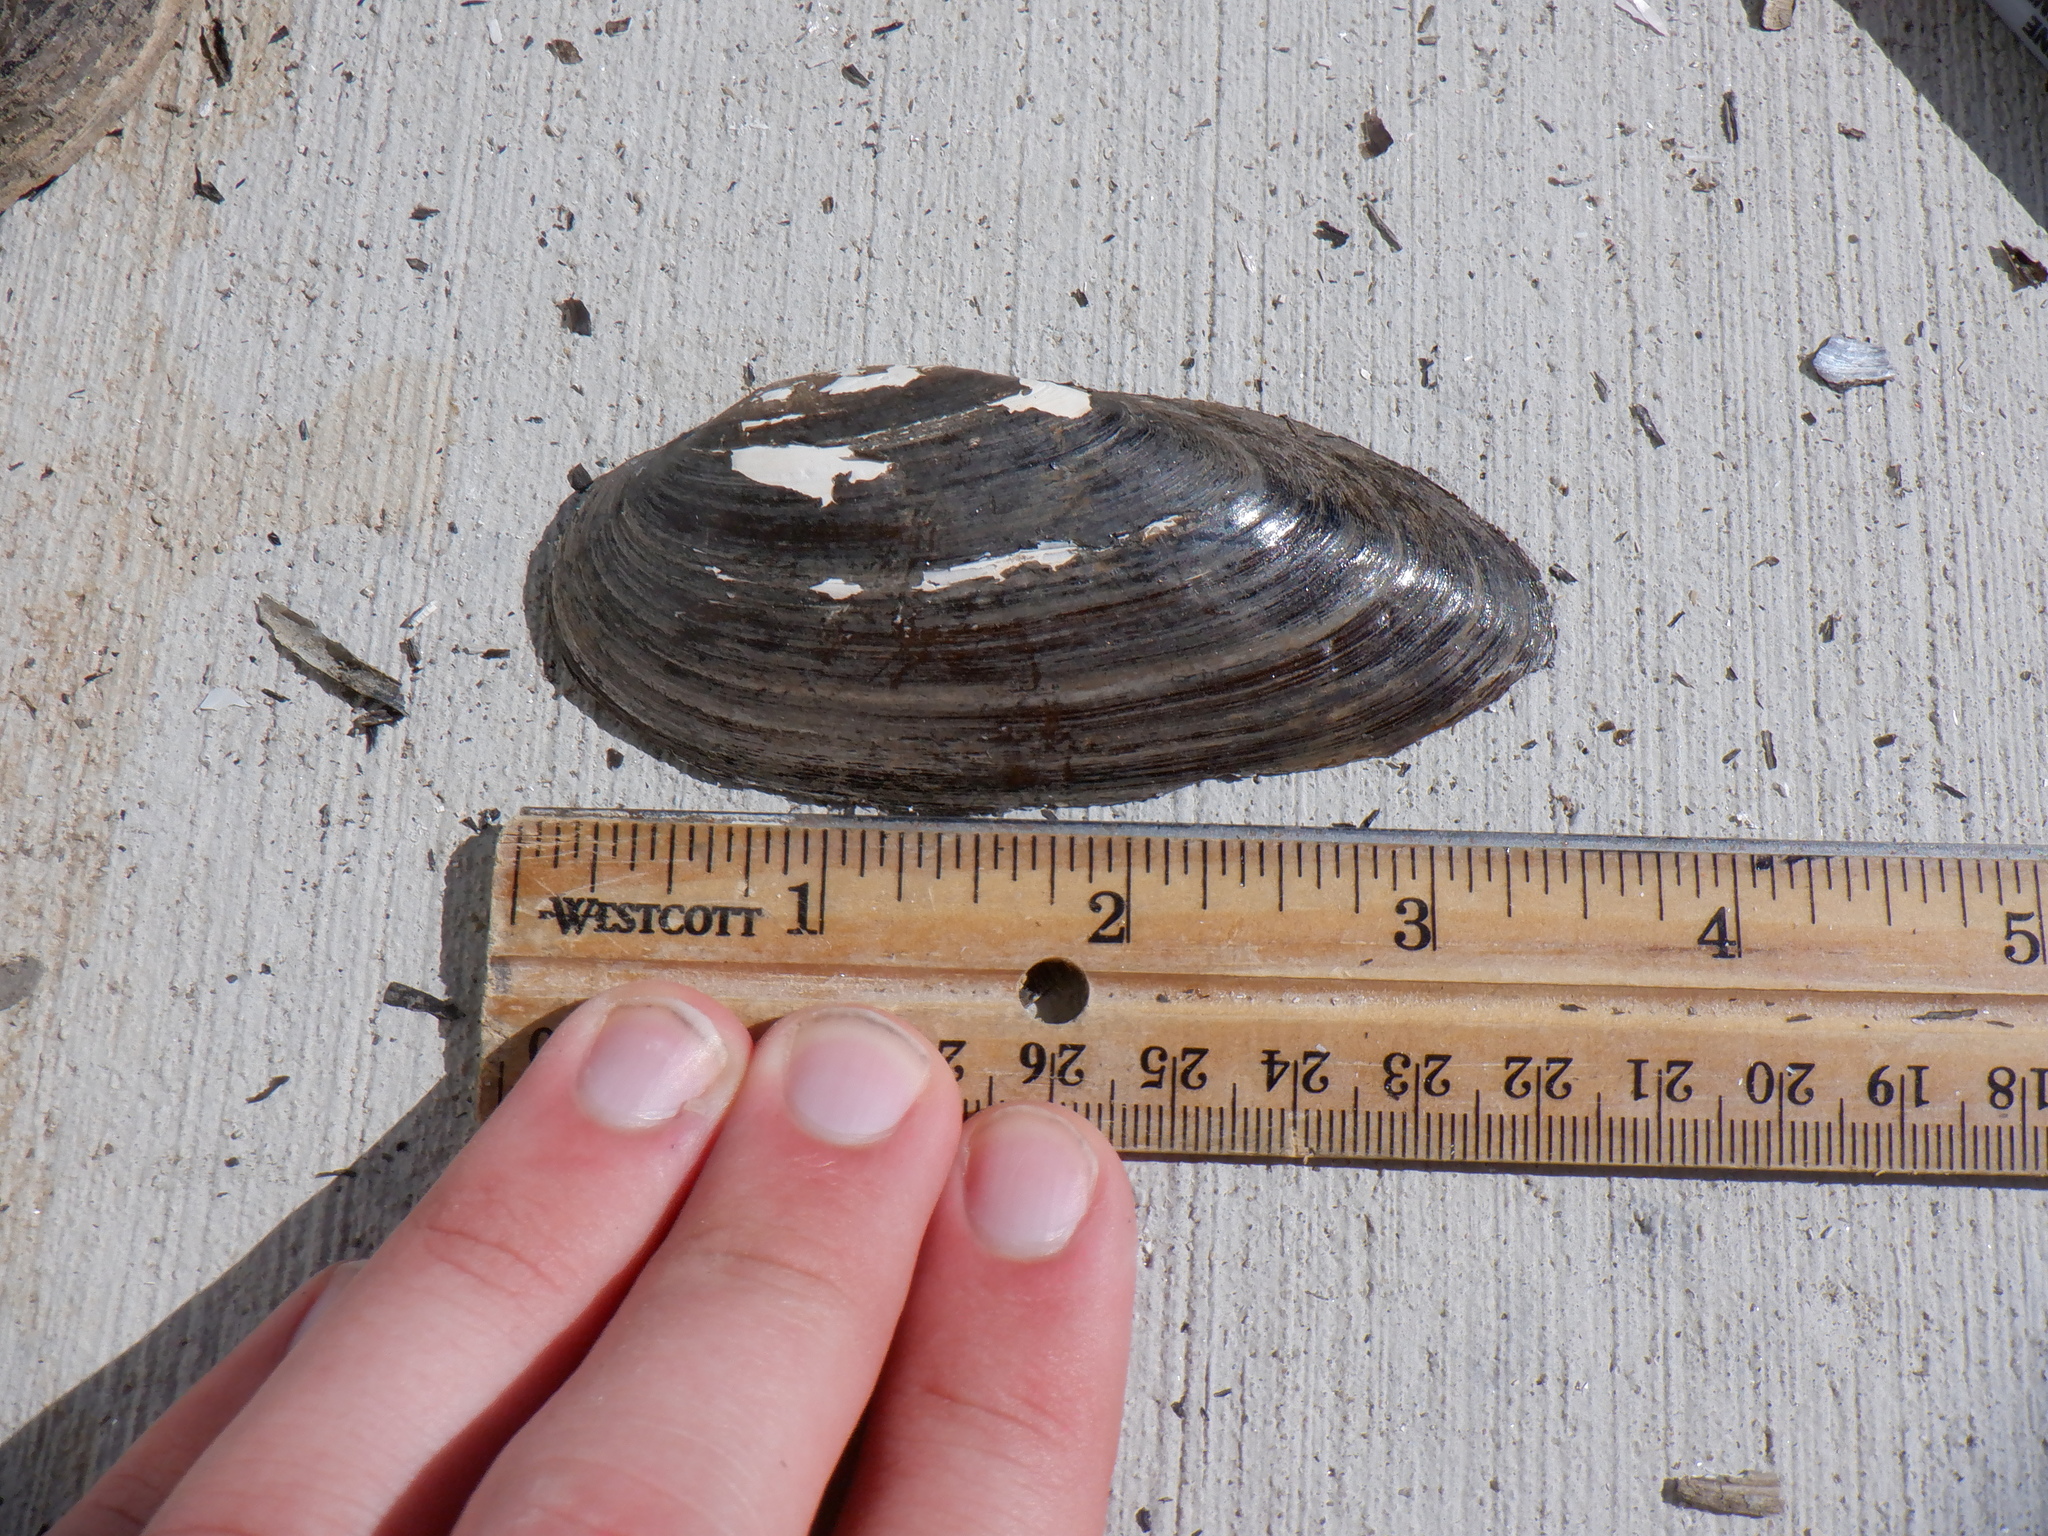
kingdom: Animalia
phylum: Mollusca
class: Bivalvia
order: Unionida
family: Unionidae
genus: Eurynia
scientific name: Eurynia dilatata
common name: Spike
